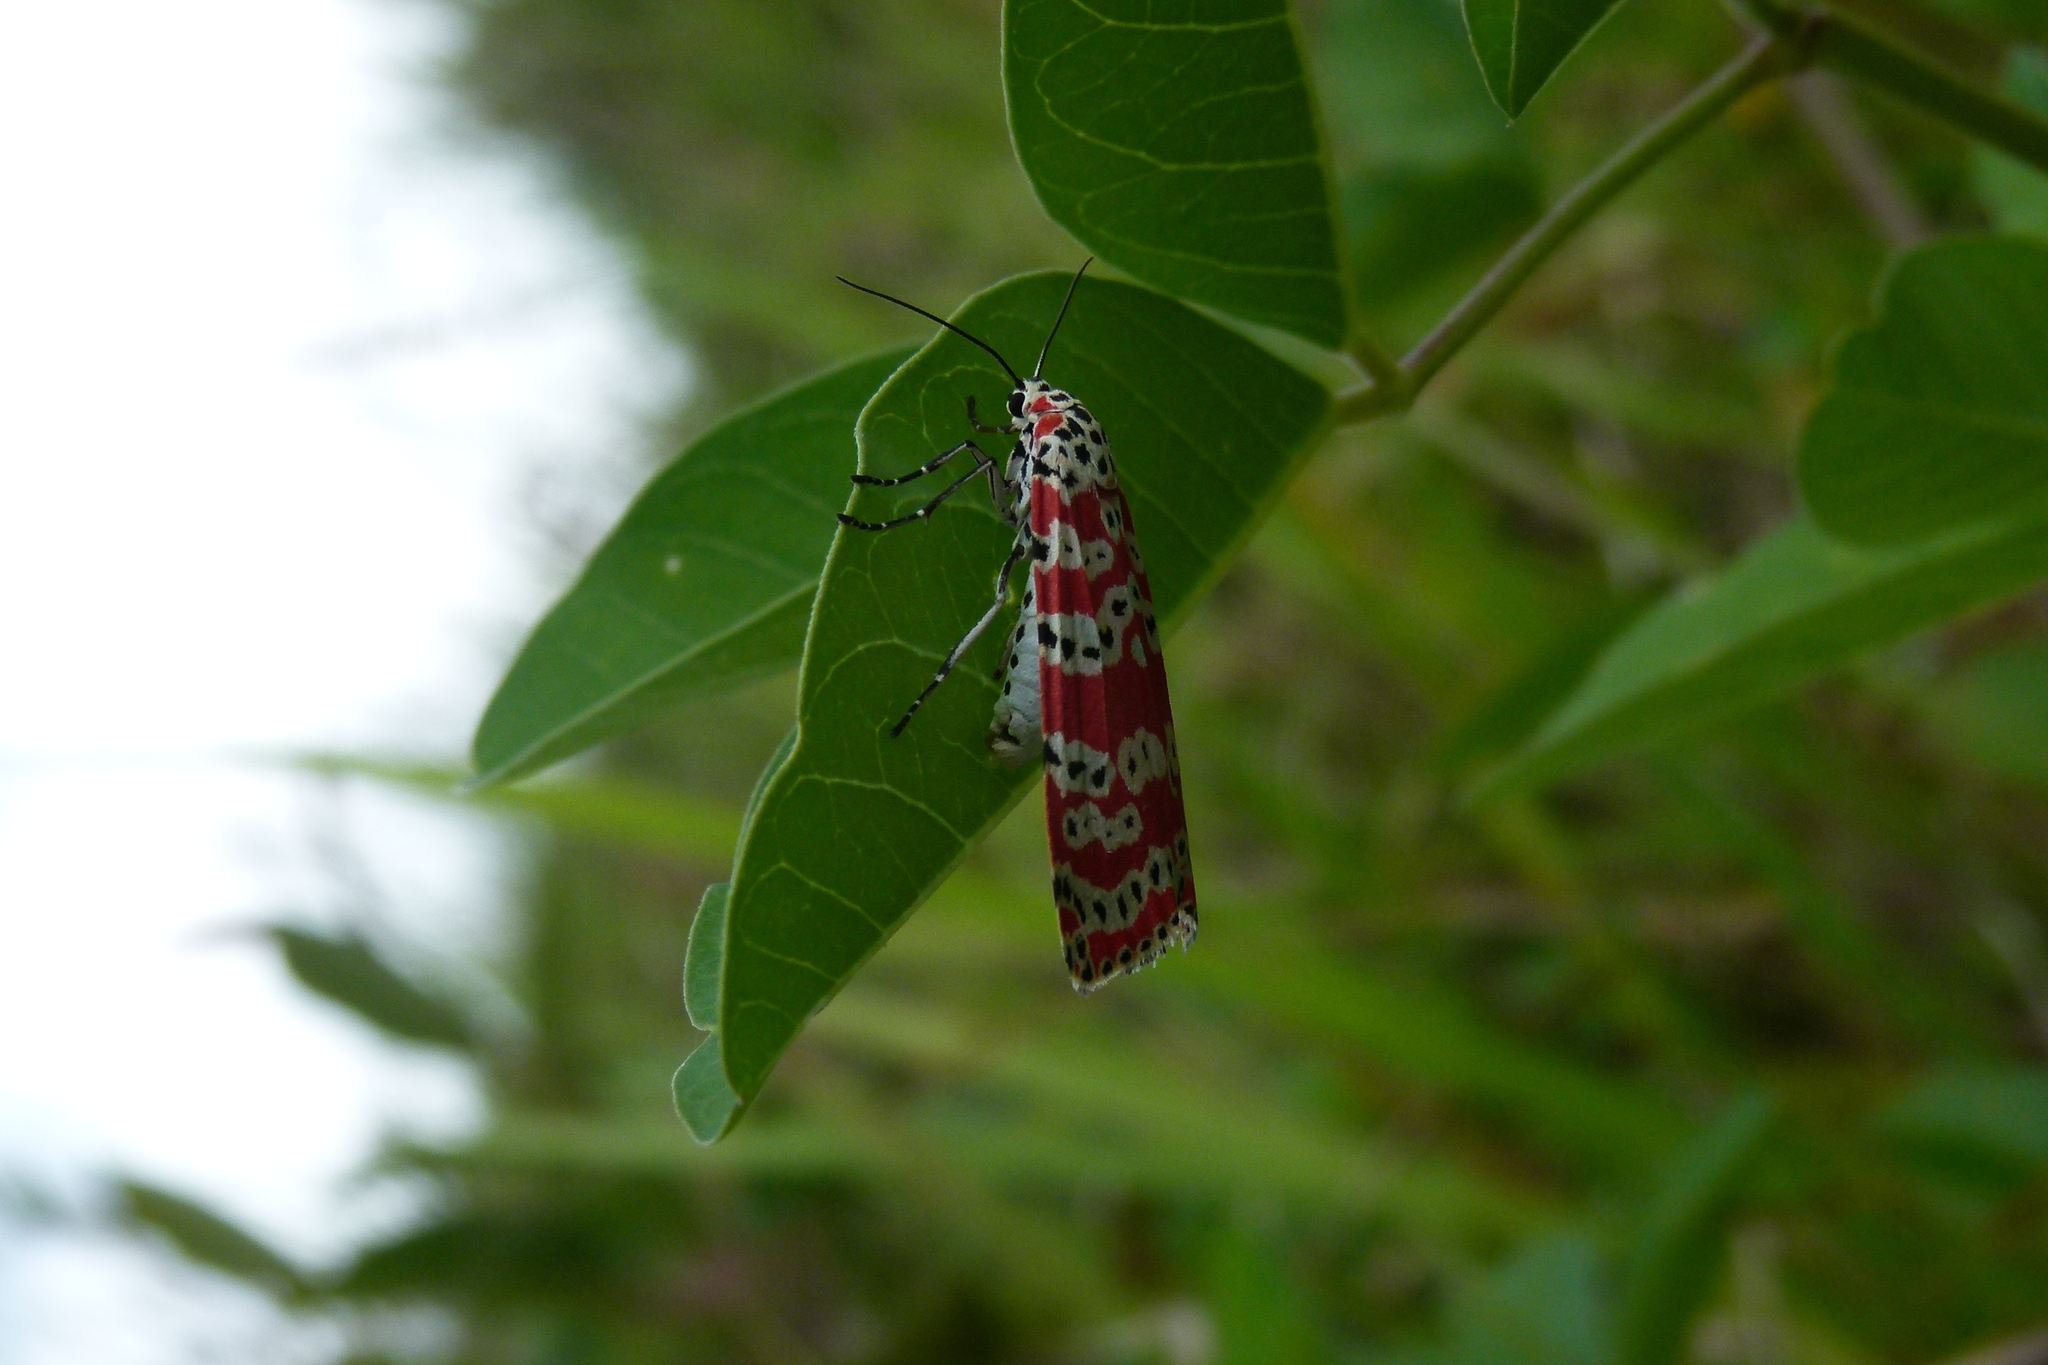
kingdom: Animalia
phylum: Arthropoda
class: Insecta
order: Lepidoptera
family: Erebidae
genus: Utetheisa
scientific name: Utetheisa ornatrix
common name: Beautiful utetheisa
